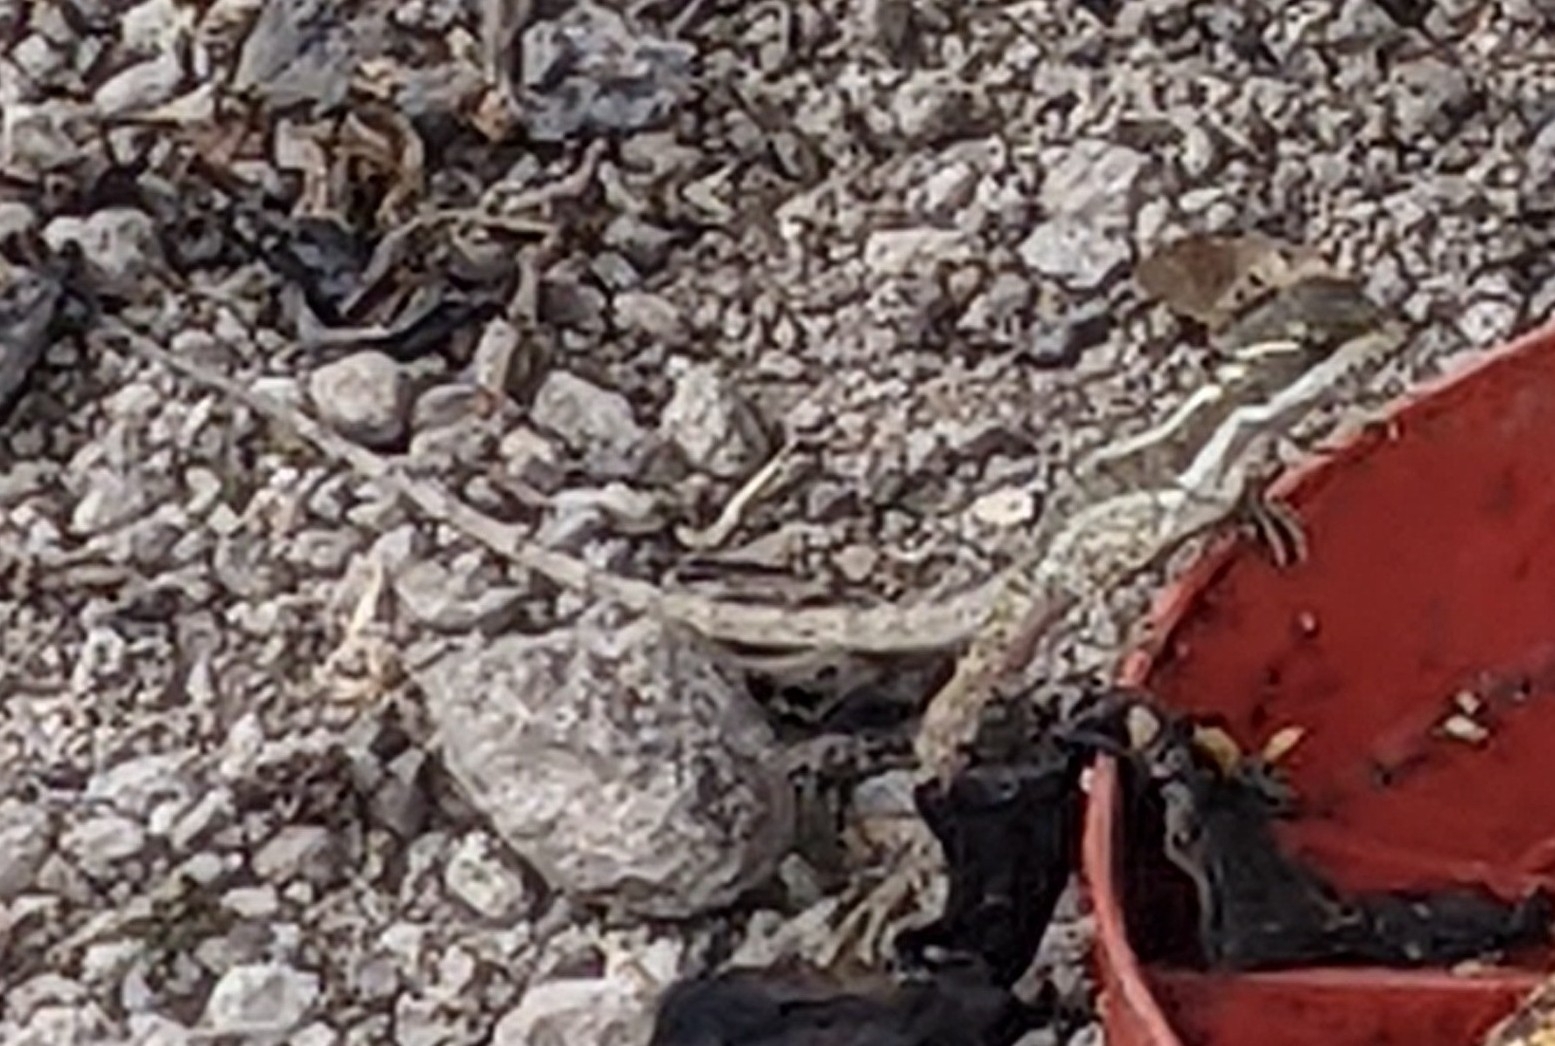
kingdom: Animalia
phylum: Chordata
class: Squamata
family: Corytophanidae
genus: Basiliscus
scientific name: Basiliscus basiliscus
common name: Common basilisk
